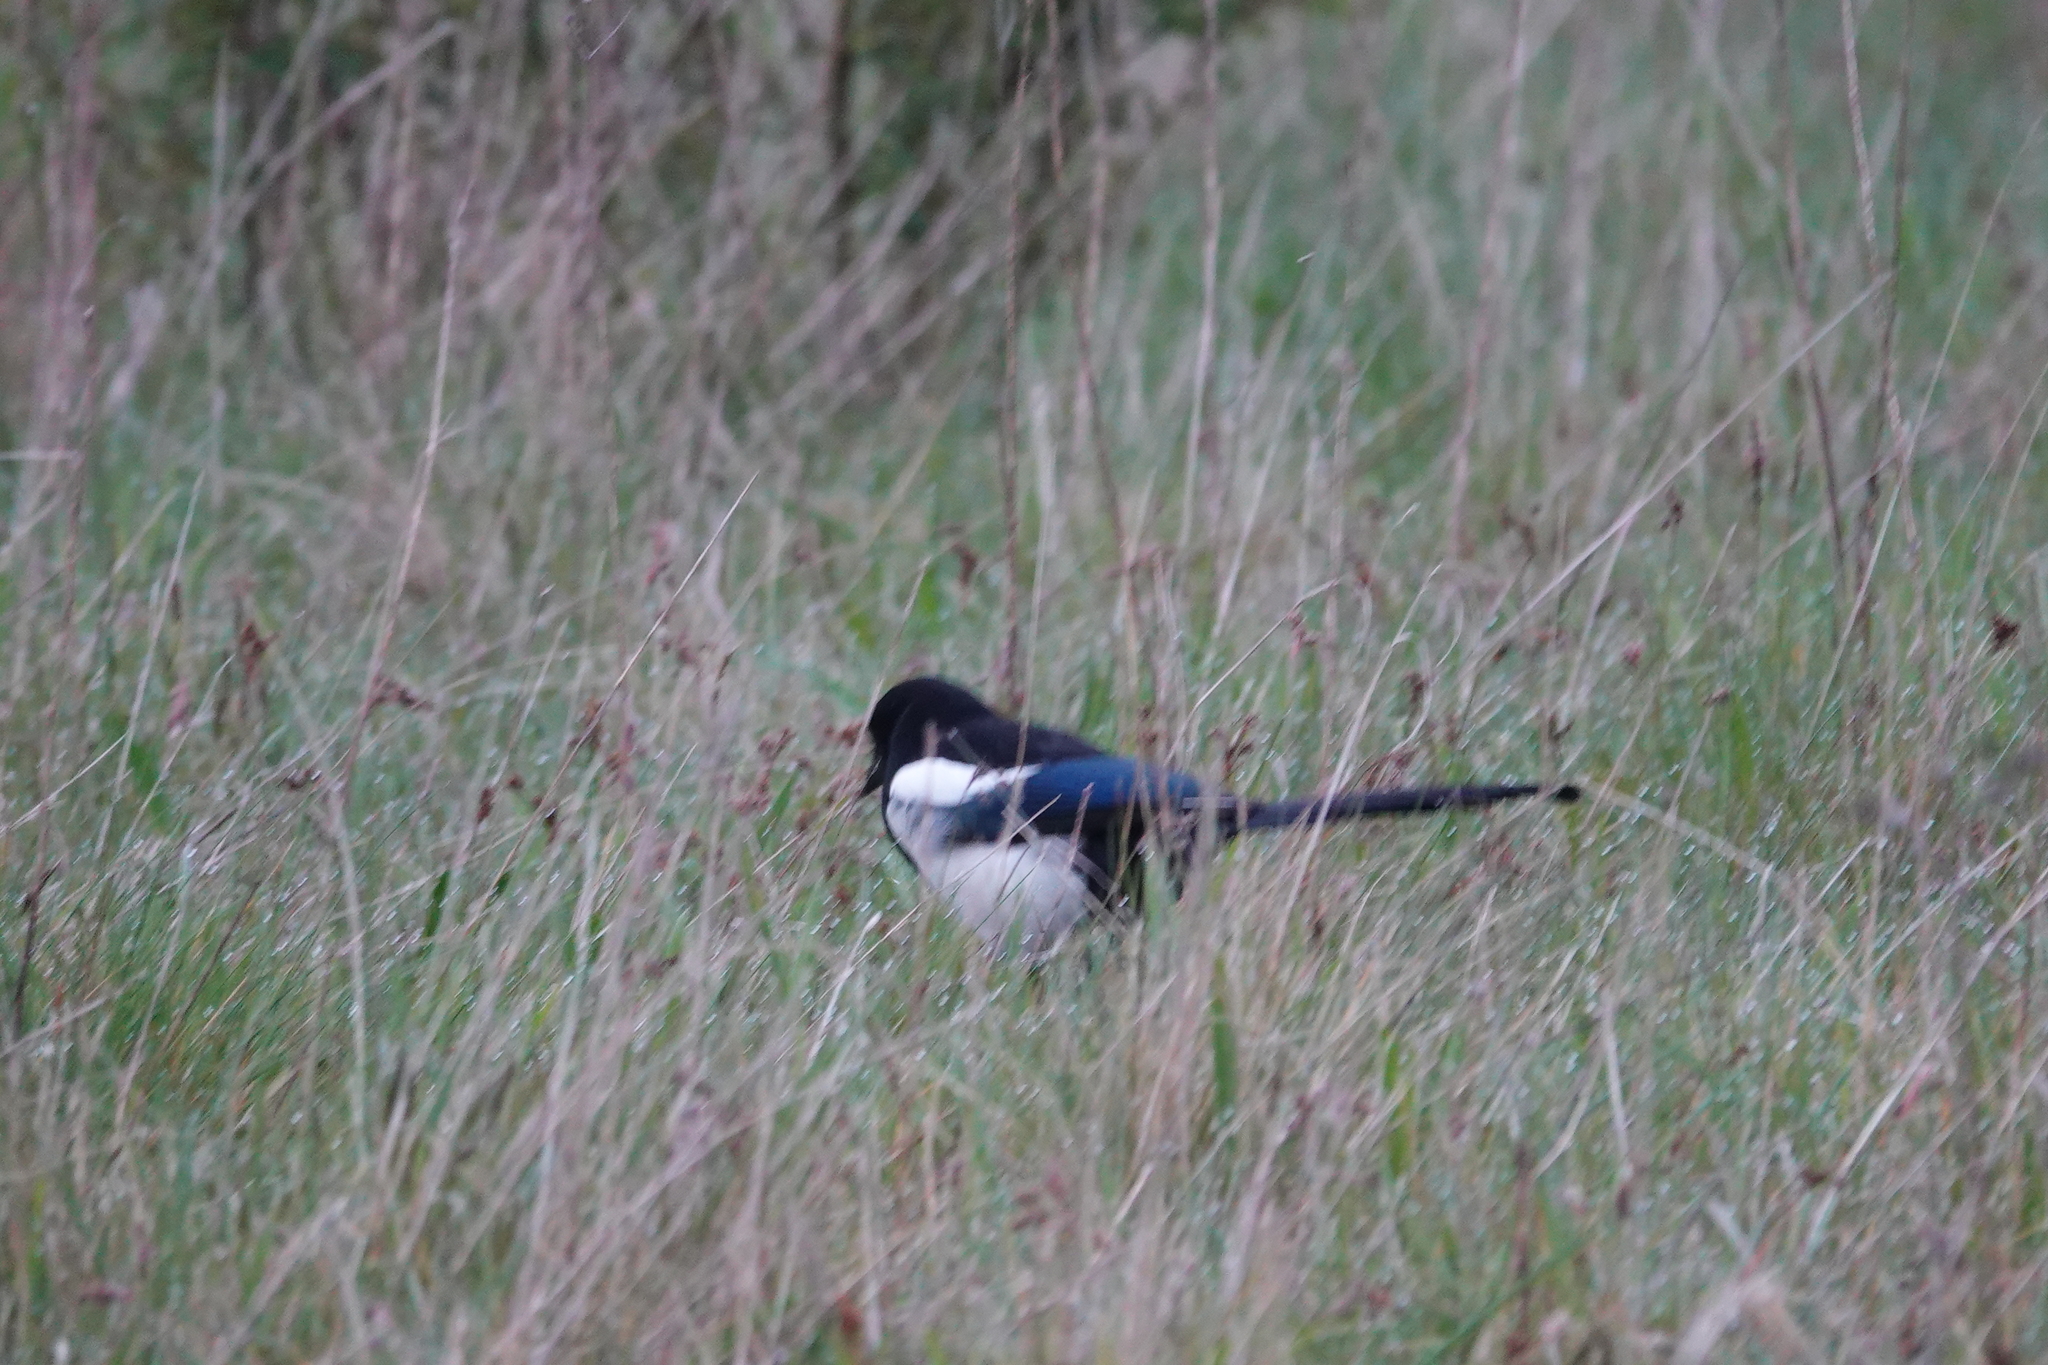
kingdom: Animalia
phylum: Chordata
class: Aves
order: Passeriformes
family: Corvidae
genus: Pica
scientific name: Pica pica
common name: Eurasian magpie
